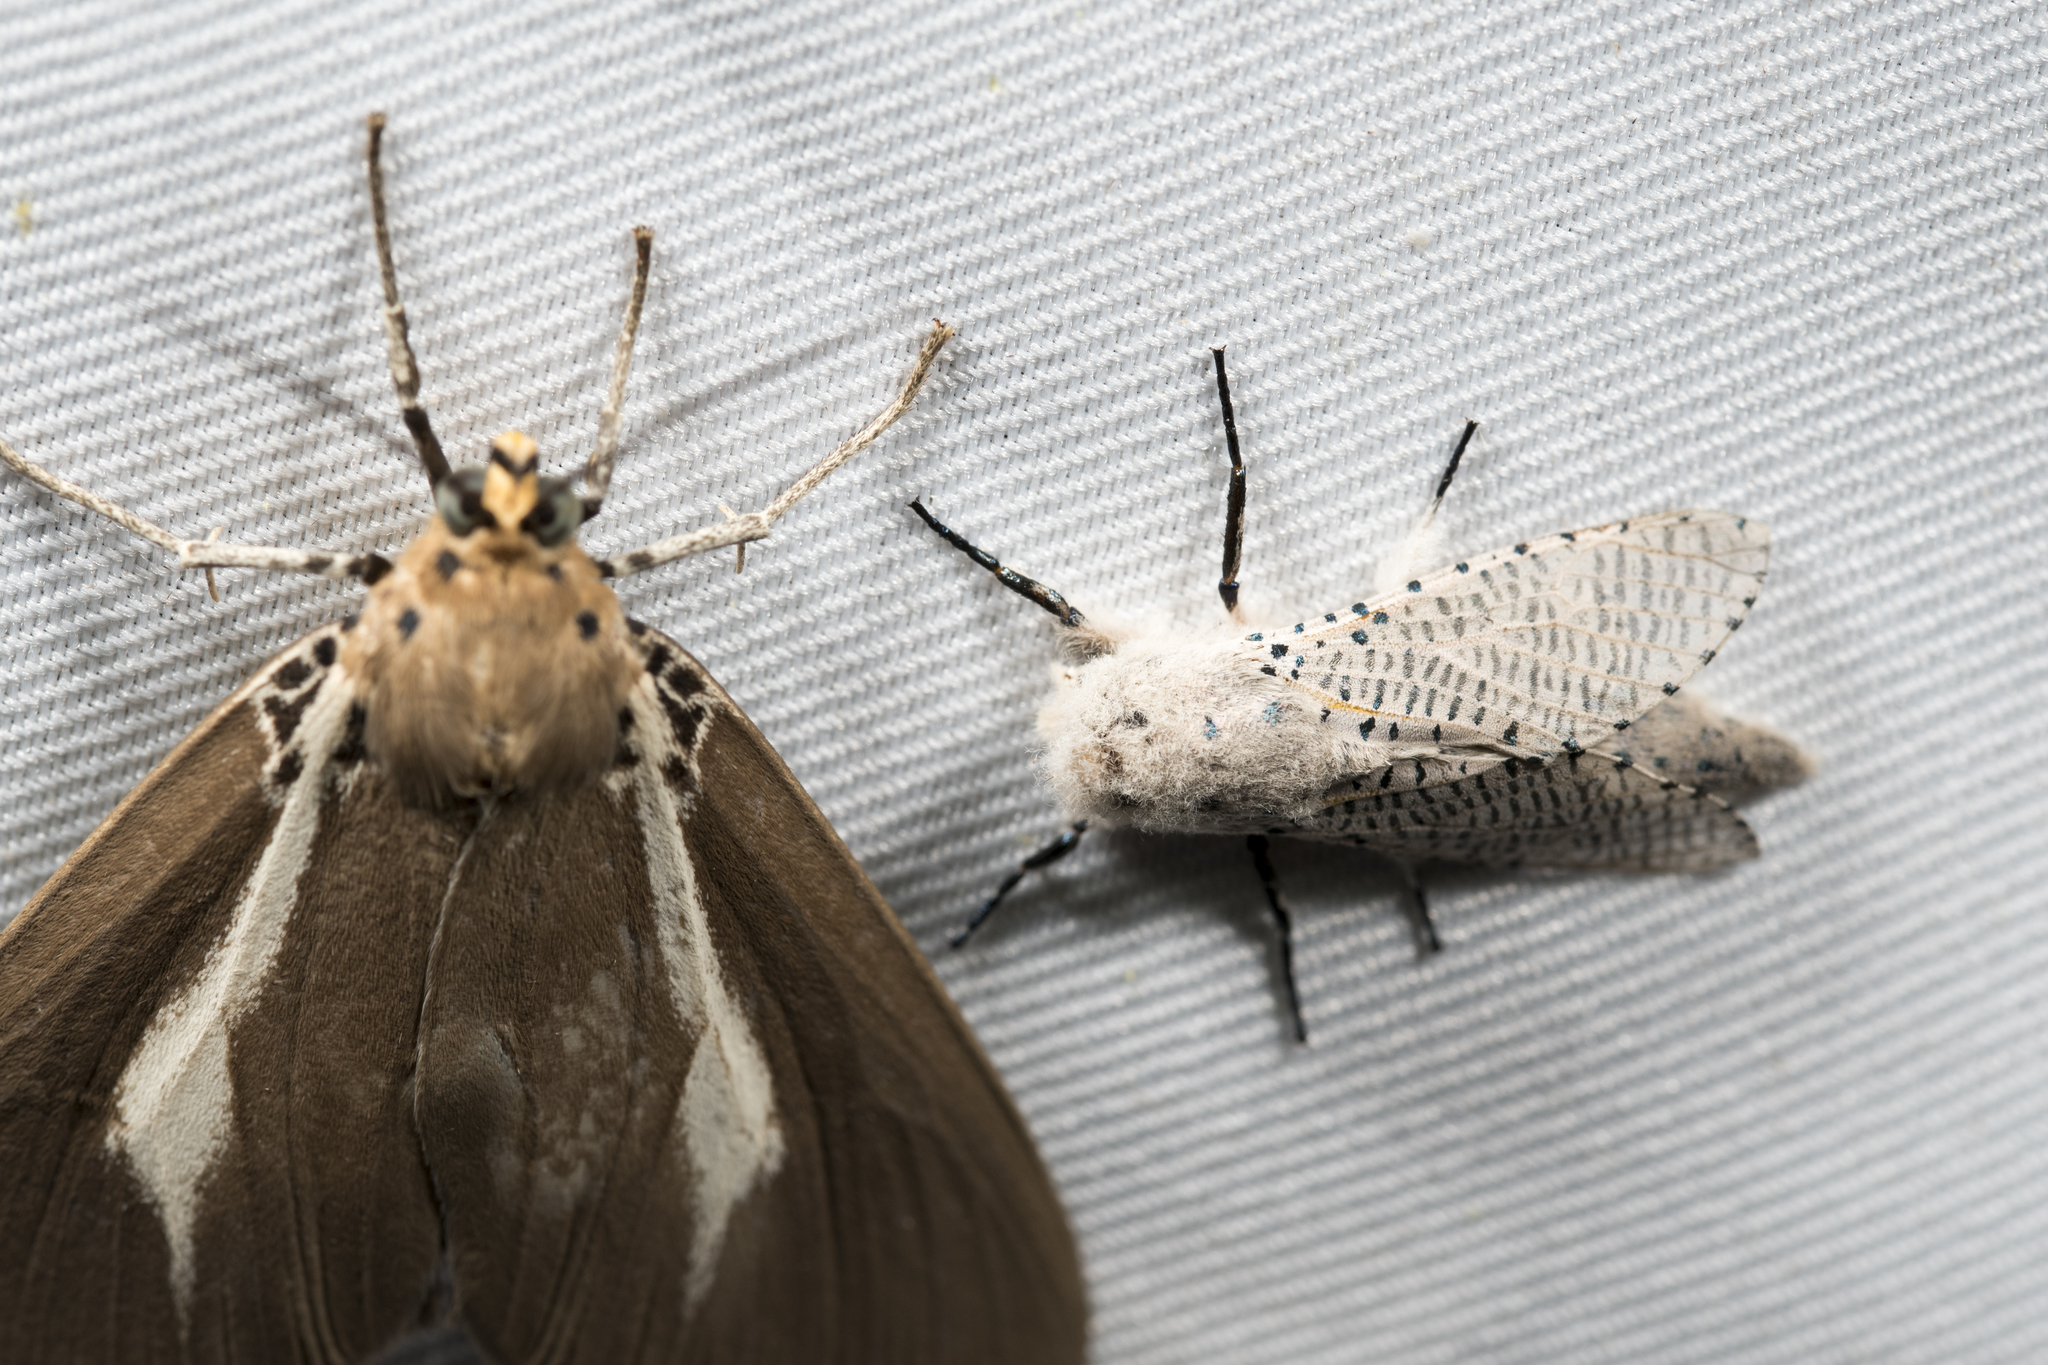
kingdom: Animalia
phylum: Arthropoda
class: Insecta
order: Lepidoptera
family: Cossidae
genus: Polyphagozerra
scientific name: Polyphagozerra coffeae
